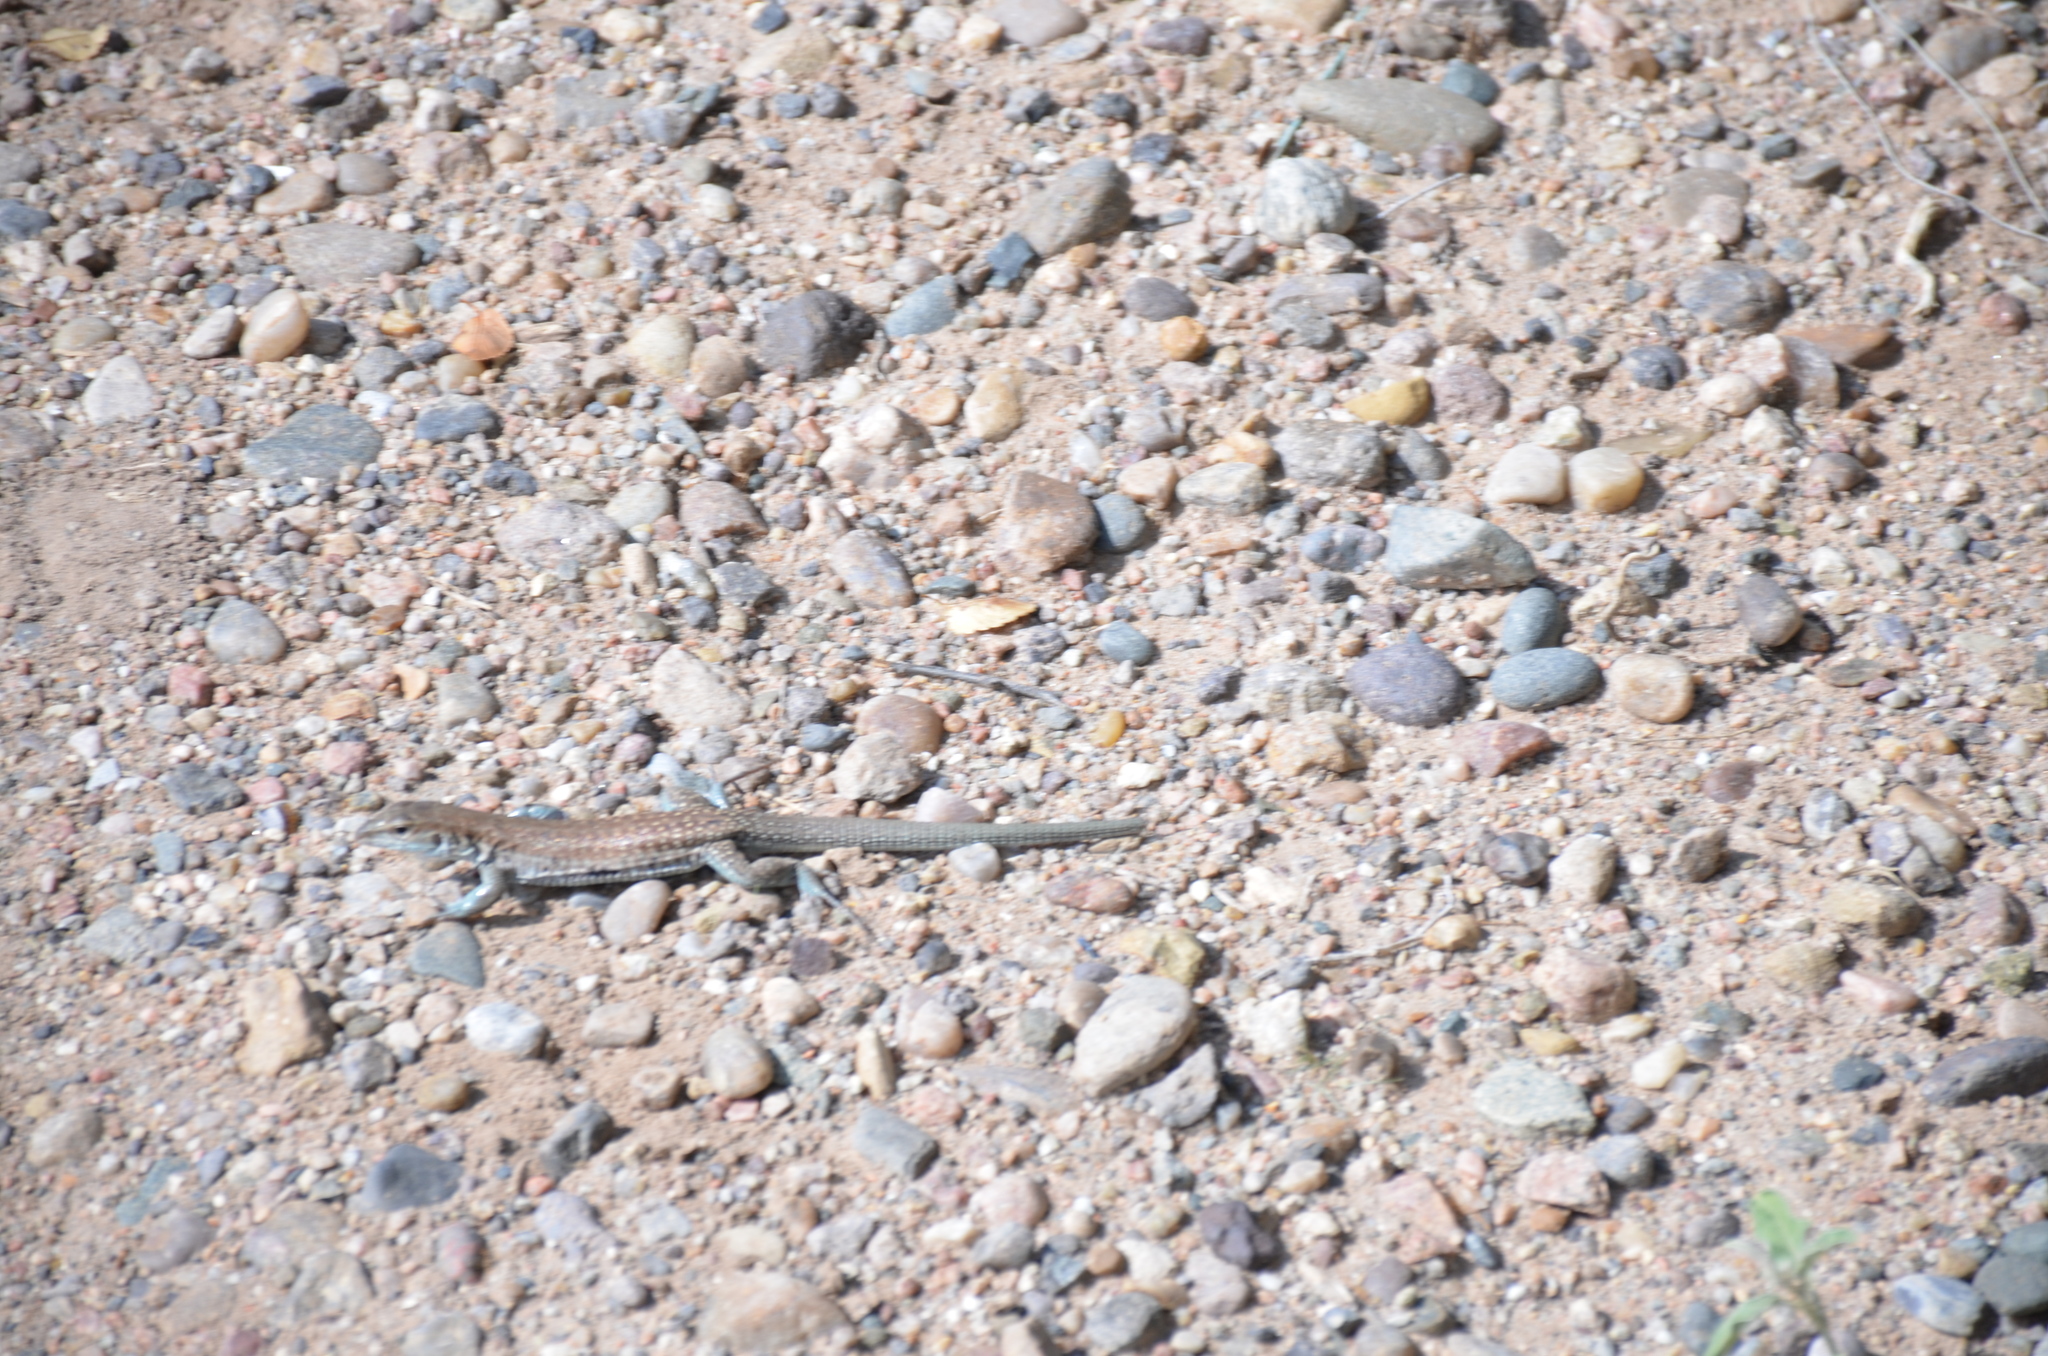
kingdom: Animalia
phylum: Chordata
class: Squamata
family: Teiidae
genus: Aspidoscelis
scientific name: Aspidoscelis exsanguis
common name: Chihuahuan spotted whiptail
